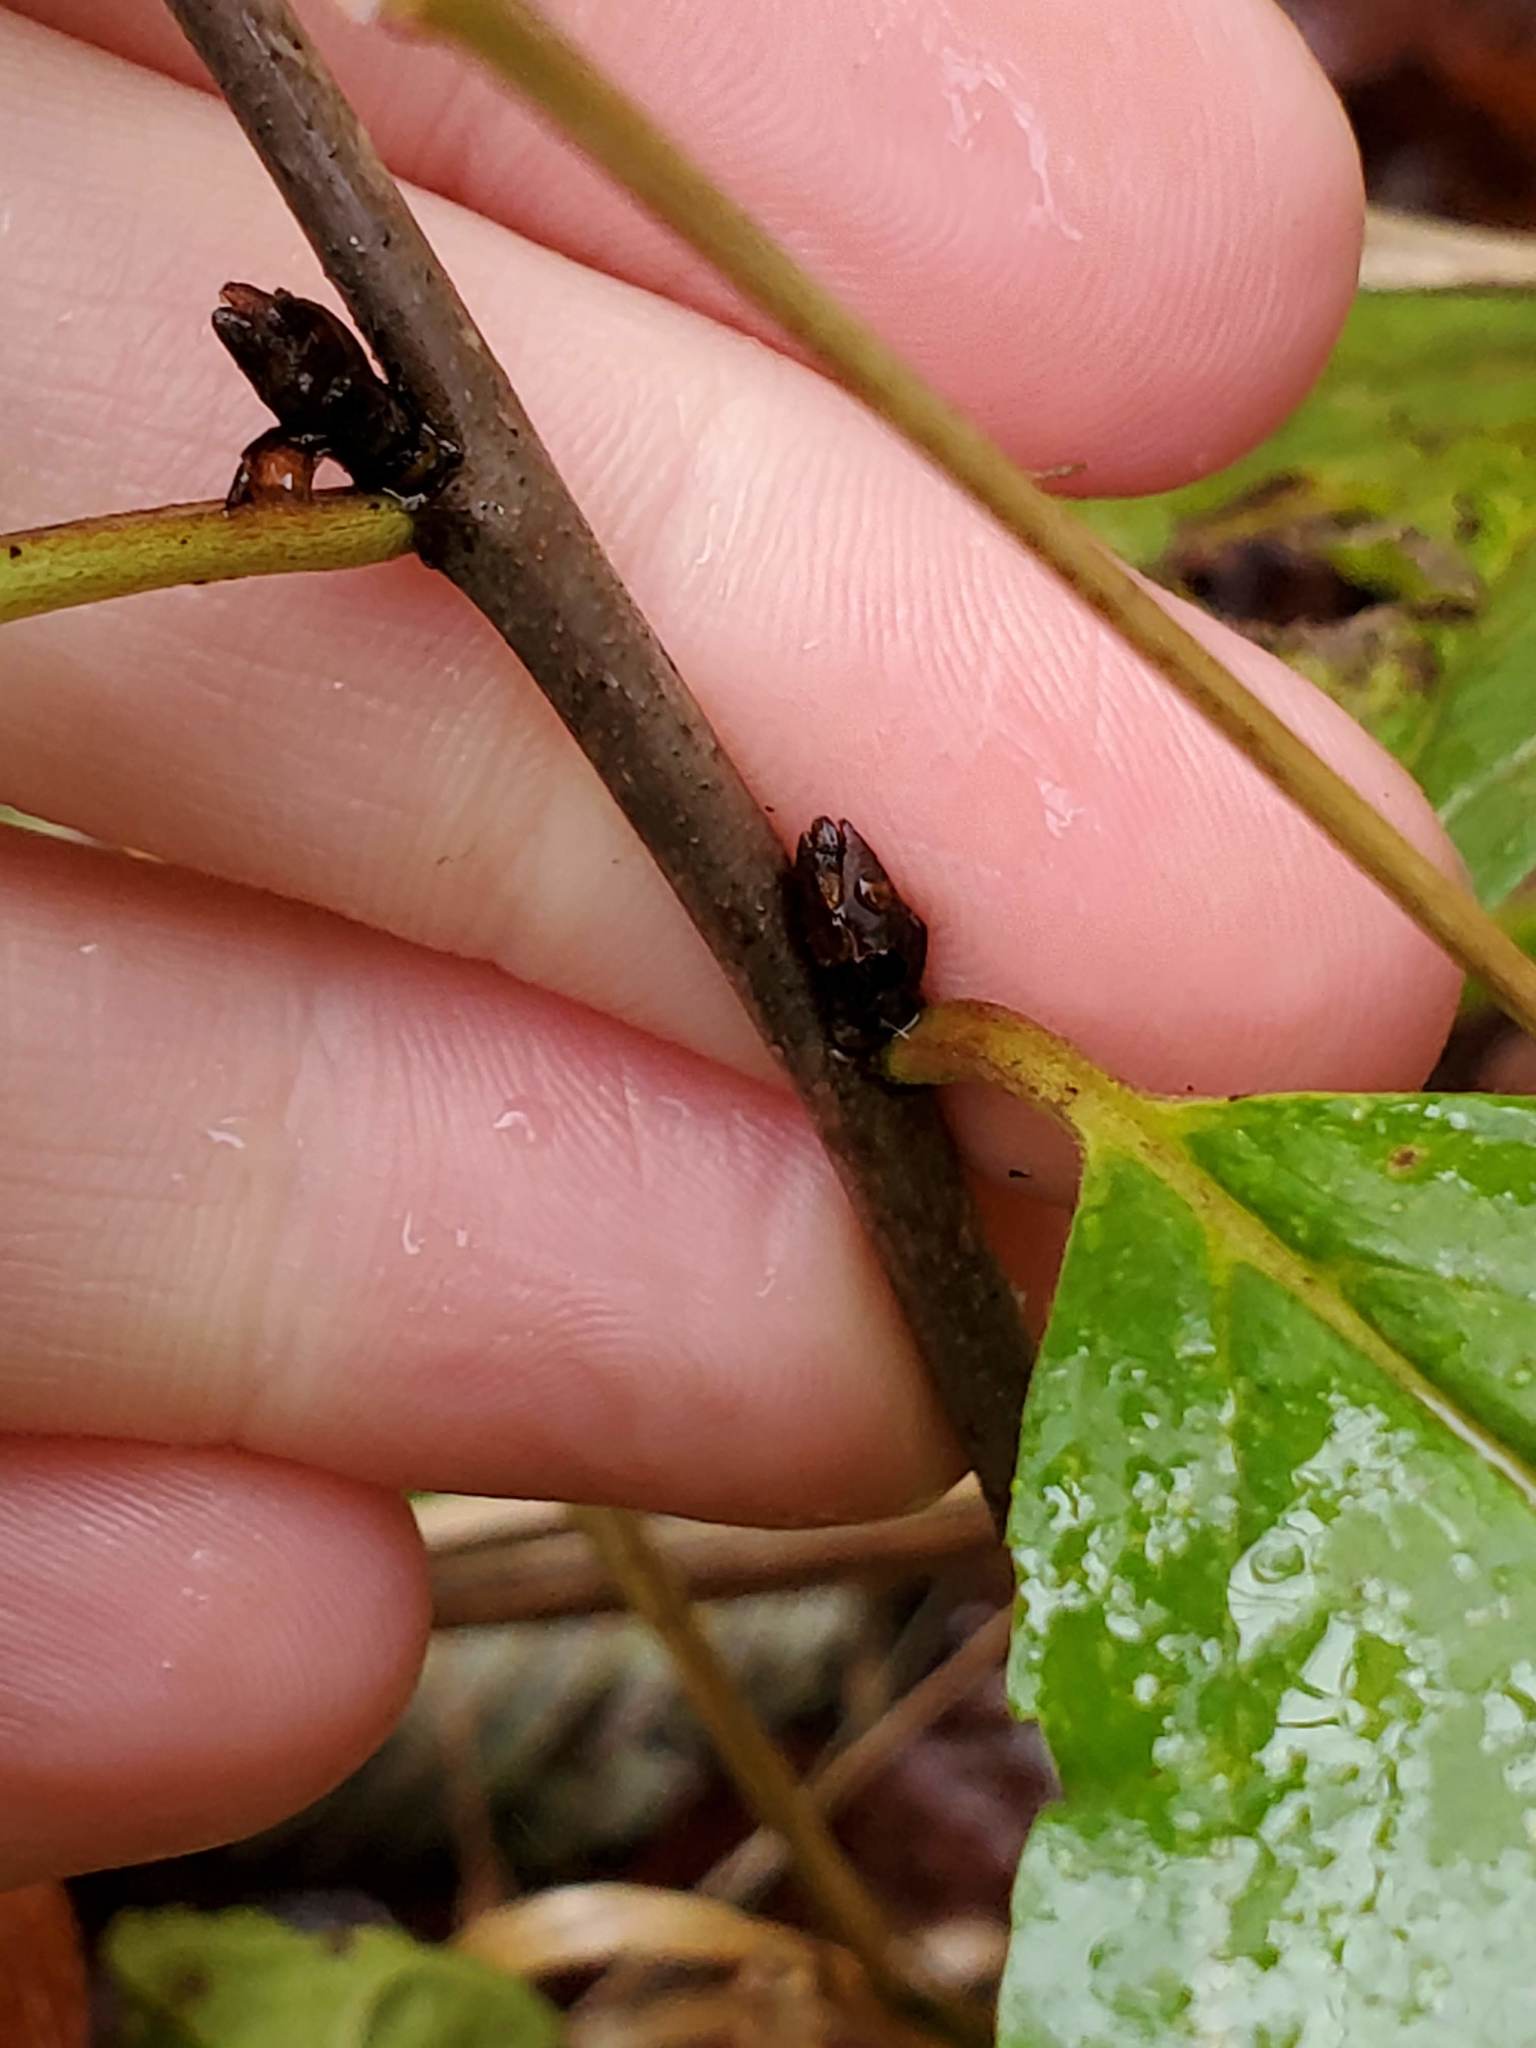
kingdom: Plantae
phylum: Tracheophyta
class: Magnoliopsida
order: Rosales
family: Rhamnaceae
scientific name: Rhamnaceae
